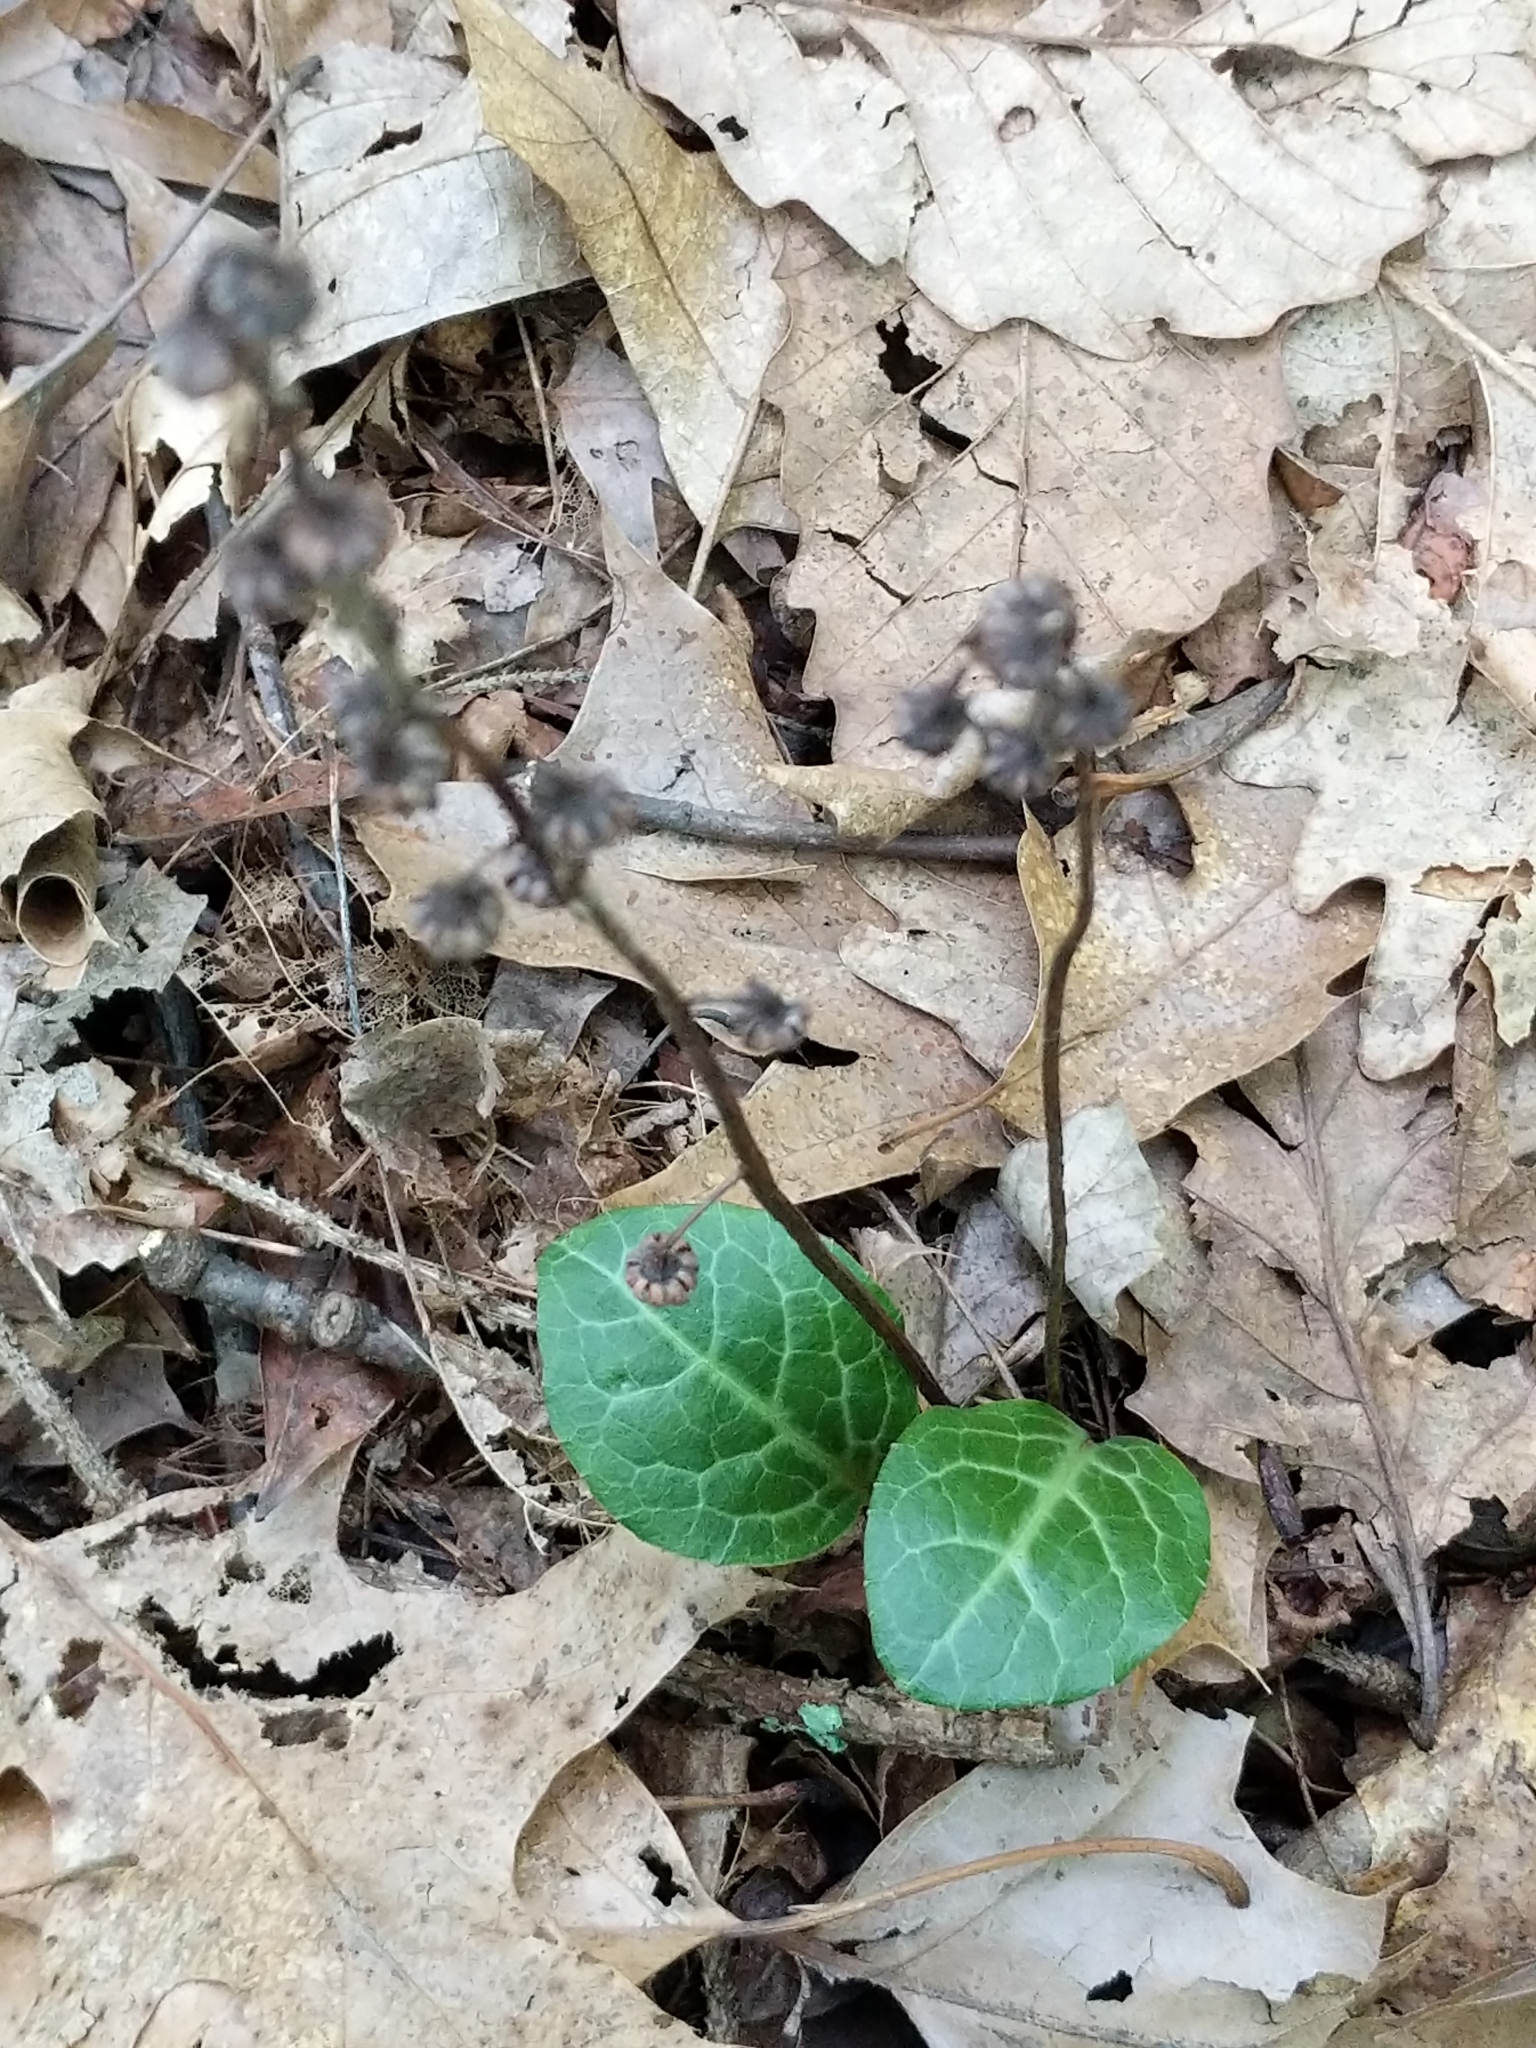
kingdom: Plantae
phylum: Tracheophyta
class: Magnoliopsida
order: Ericales
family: Ericaceae
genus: Pyrola
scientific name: Pyrola americana
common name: American wintergreen
